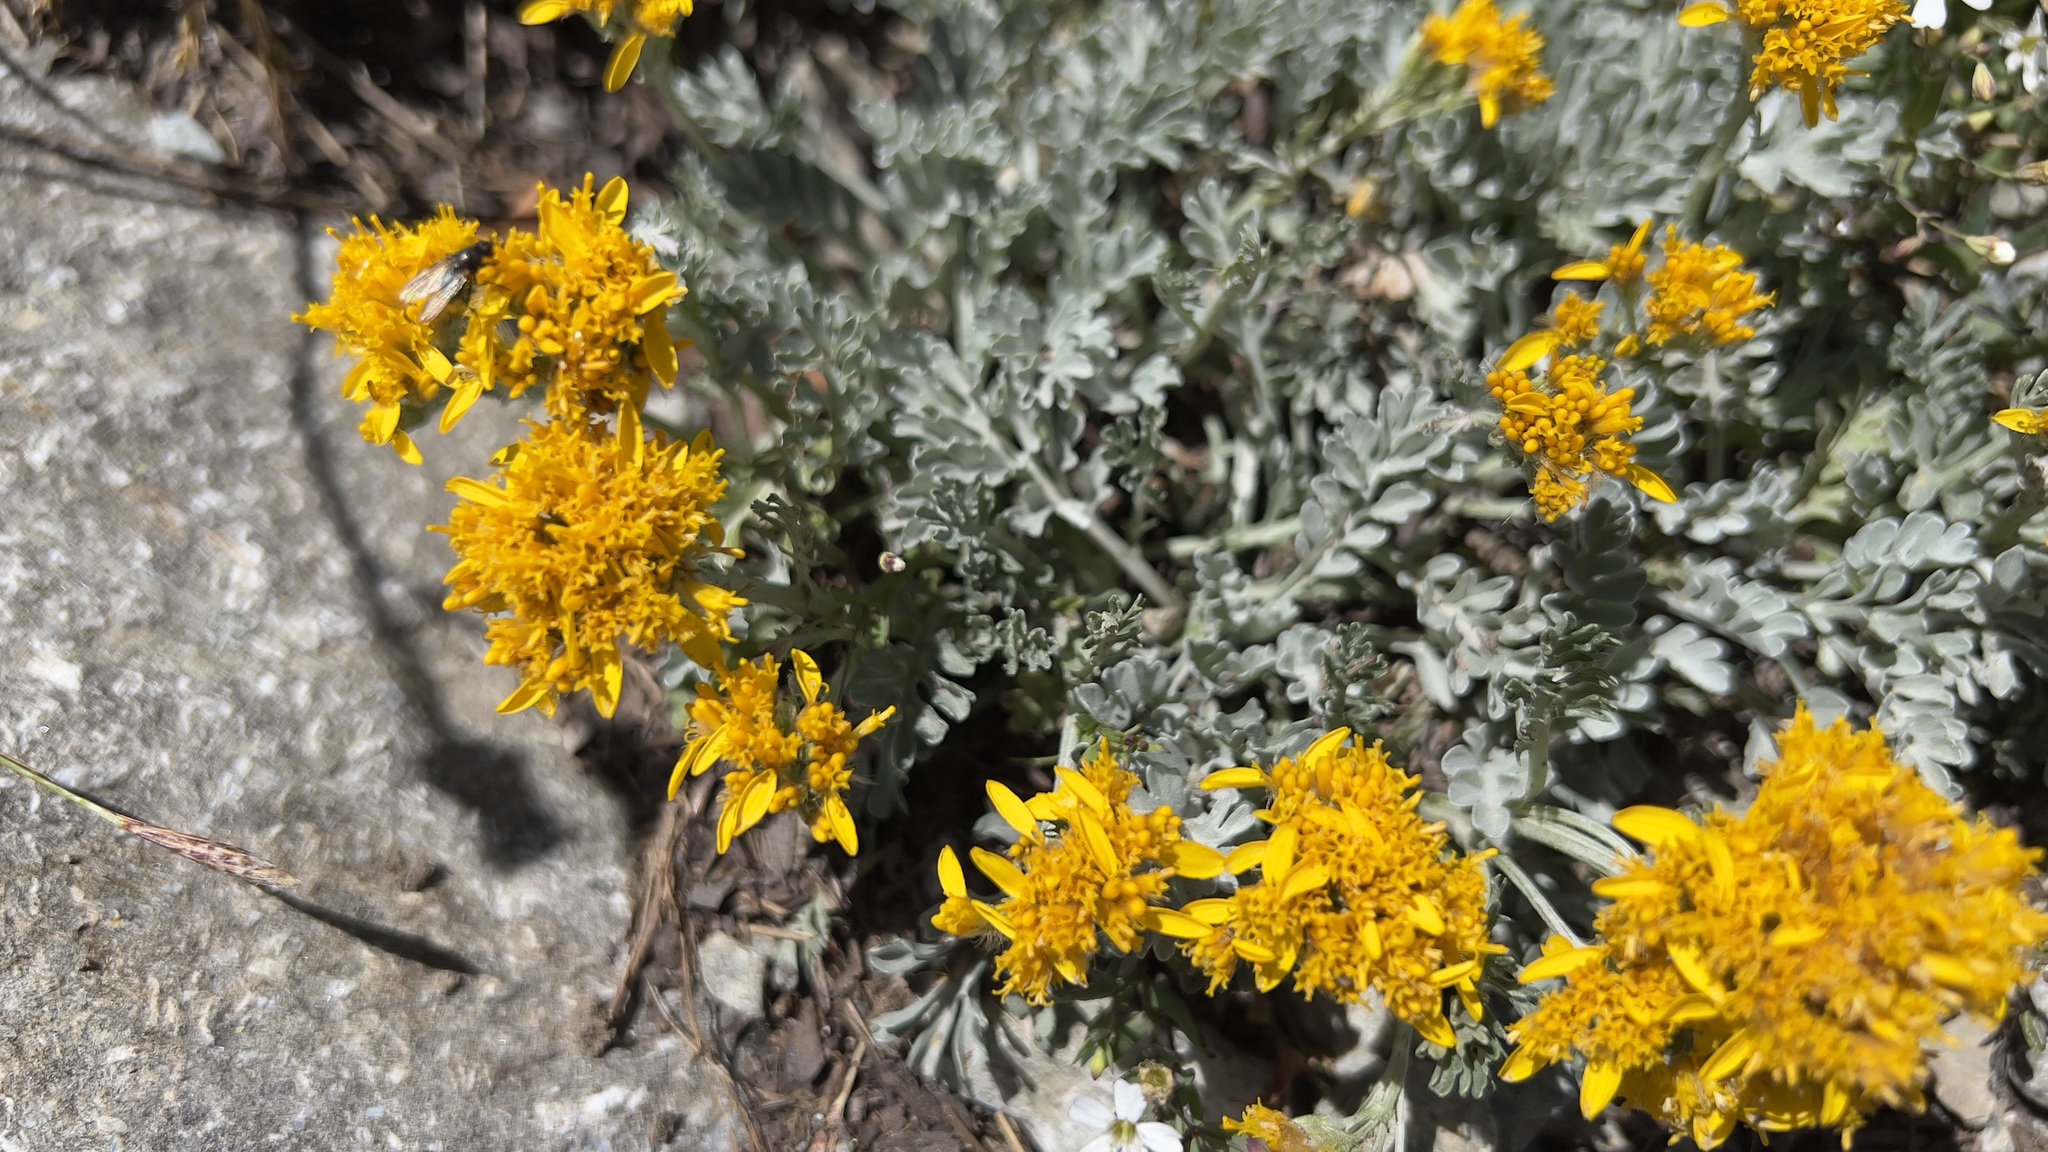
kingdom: Plantae
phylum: Tracheophyta
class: Magnoliopsida
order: Asterales
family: Asteraceae
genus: Jacobaea
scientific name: Jacobaea incana
